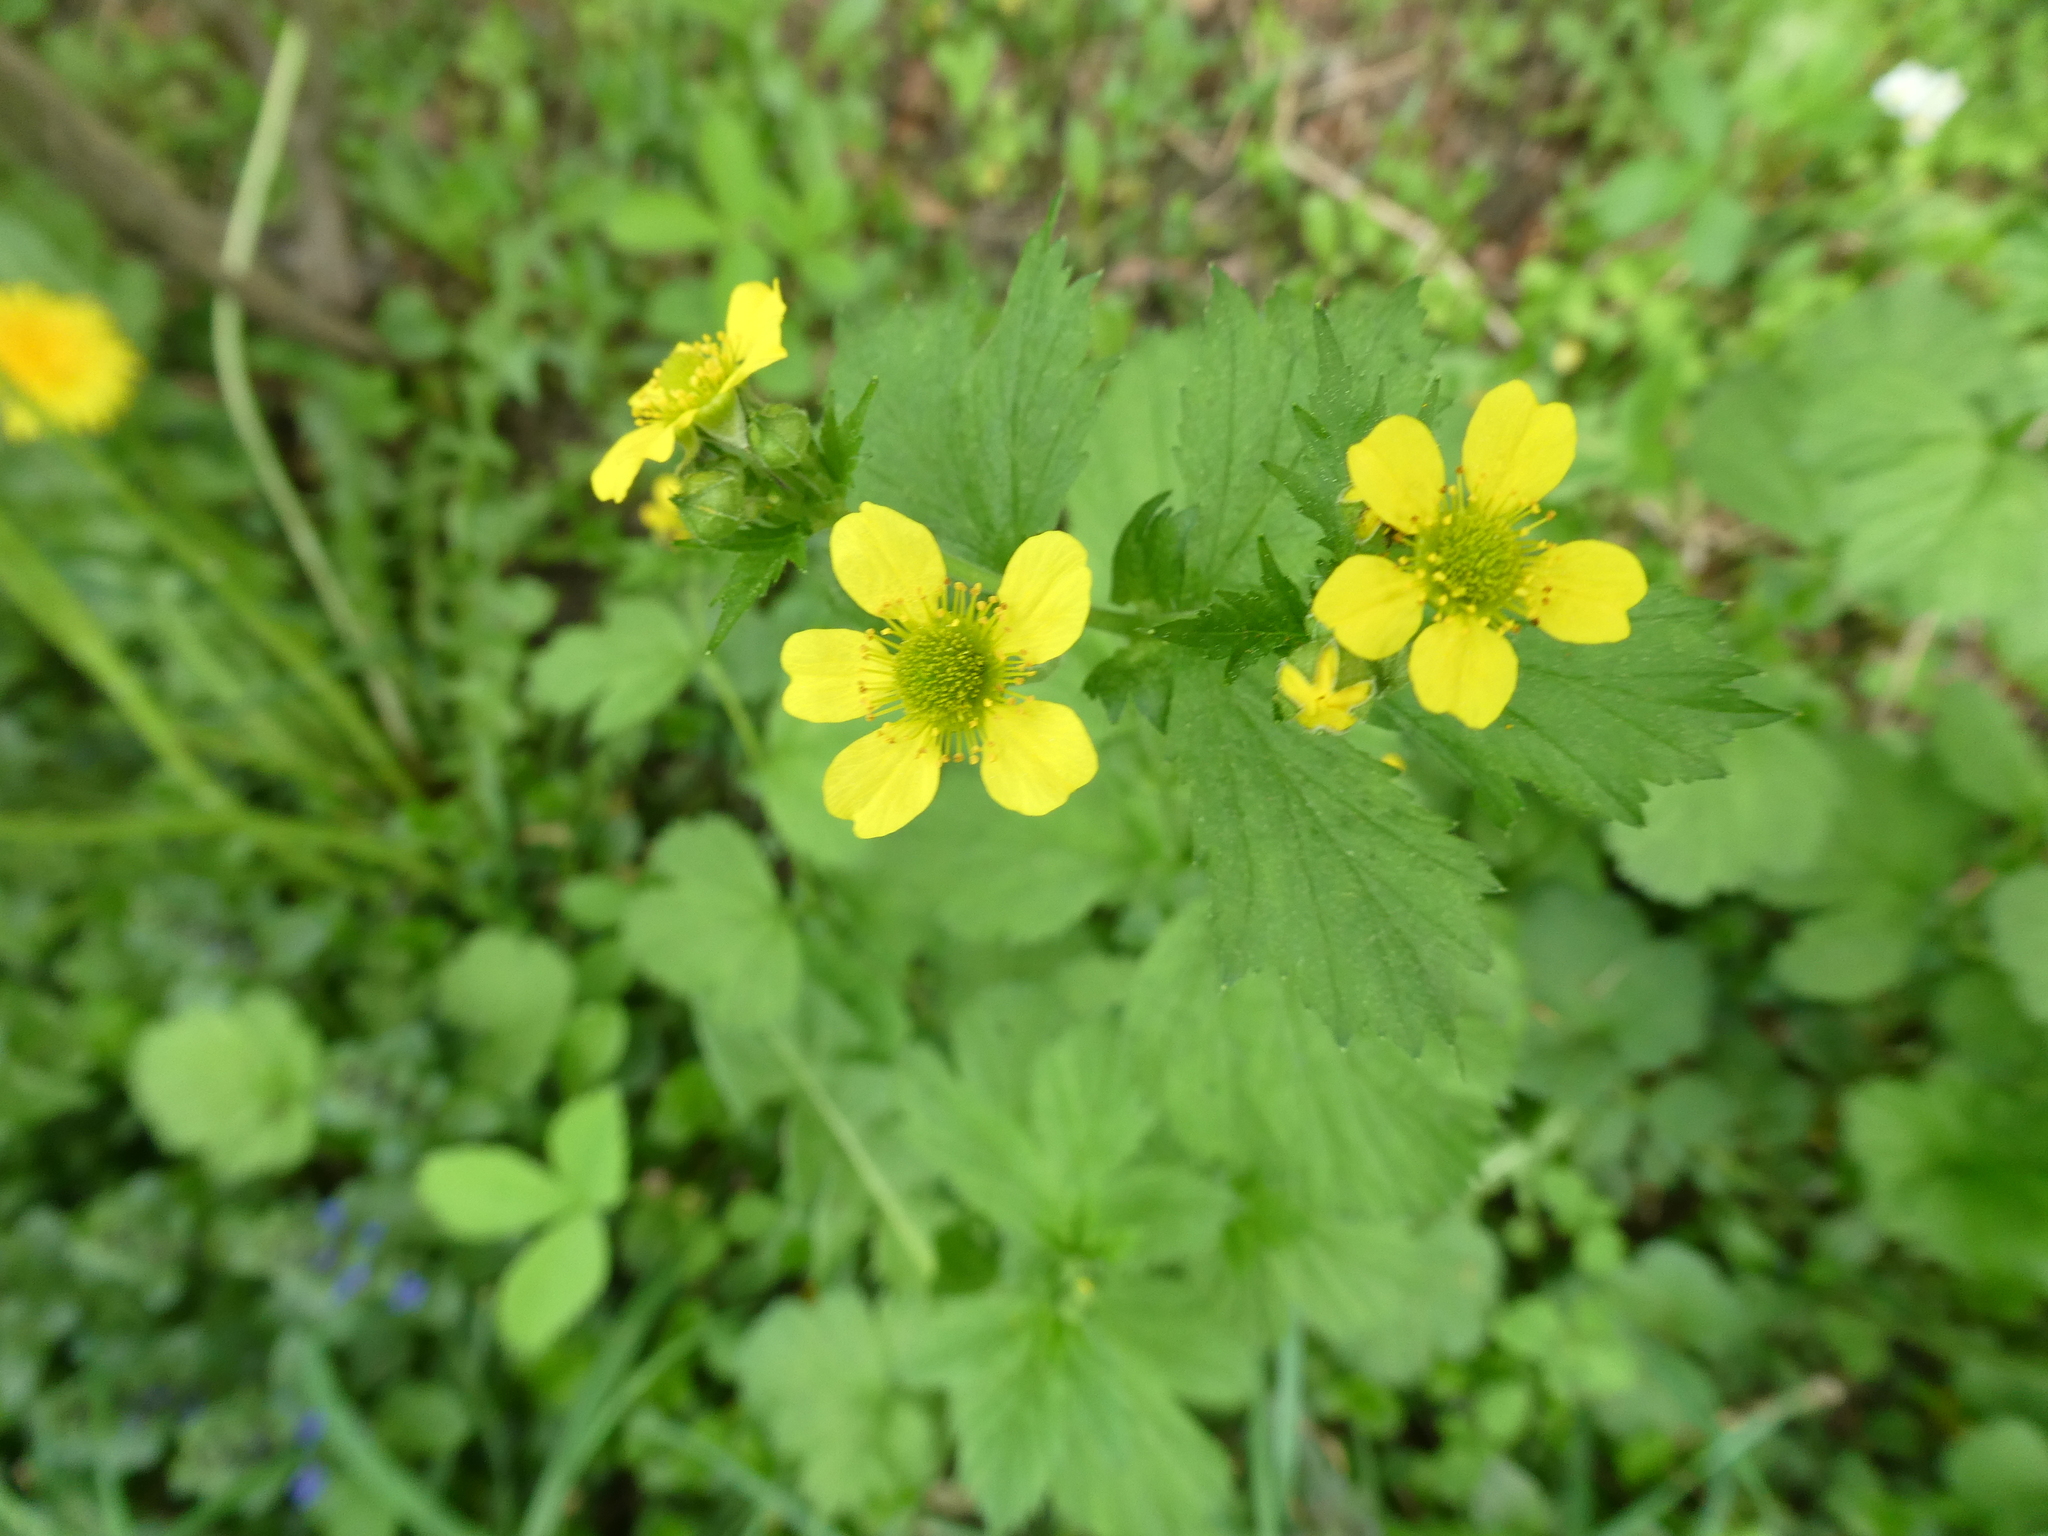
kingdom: Plantae
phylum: Tracheophyta
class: Magnoliopsida
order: Rosales
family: Rosaceae
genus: Geum
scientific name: Geum macrophyllum
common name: Large-leaved avens
